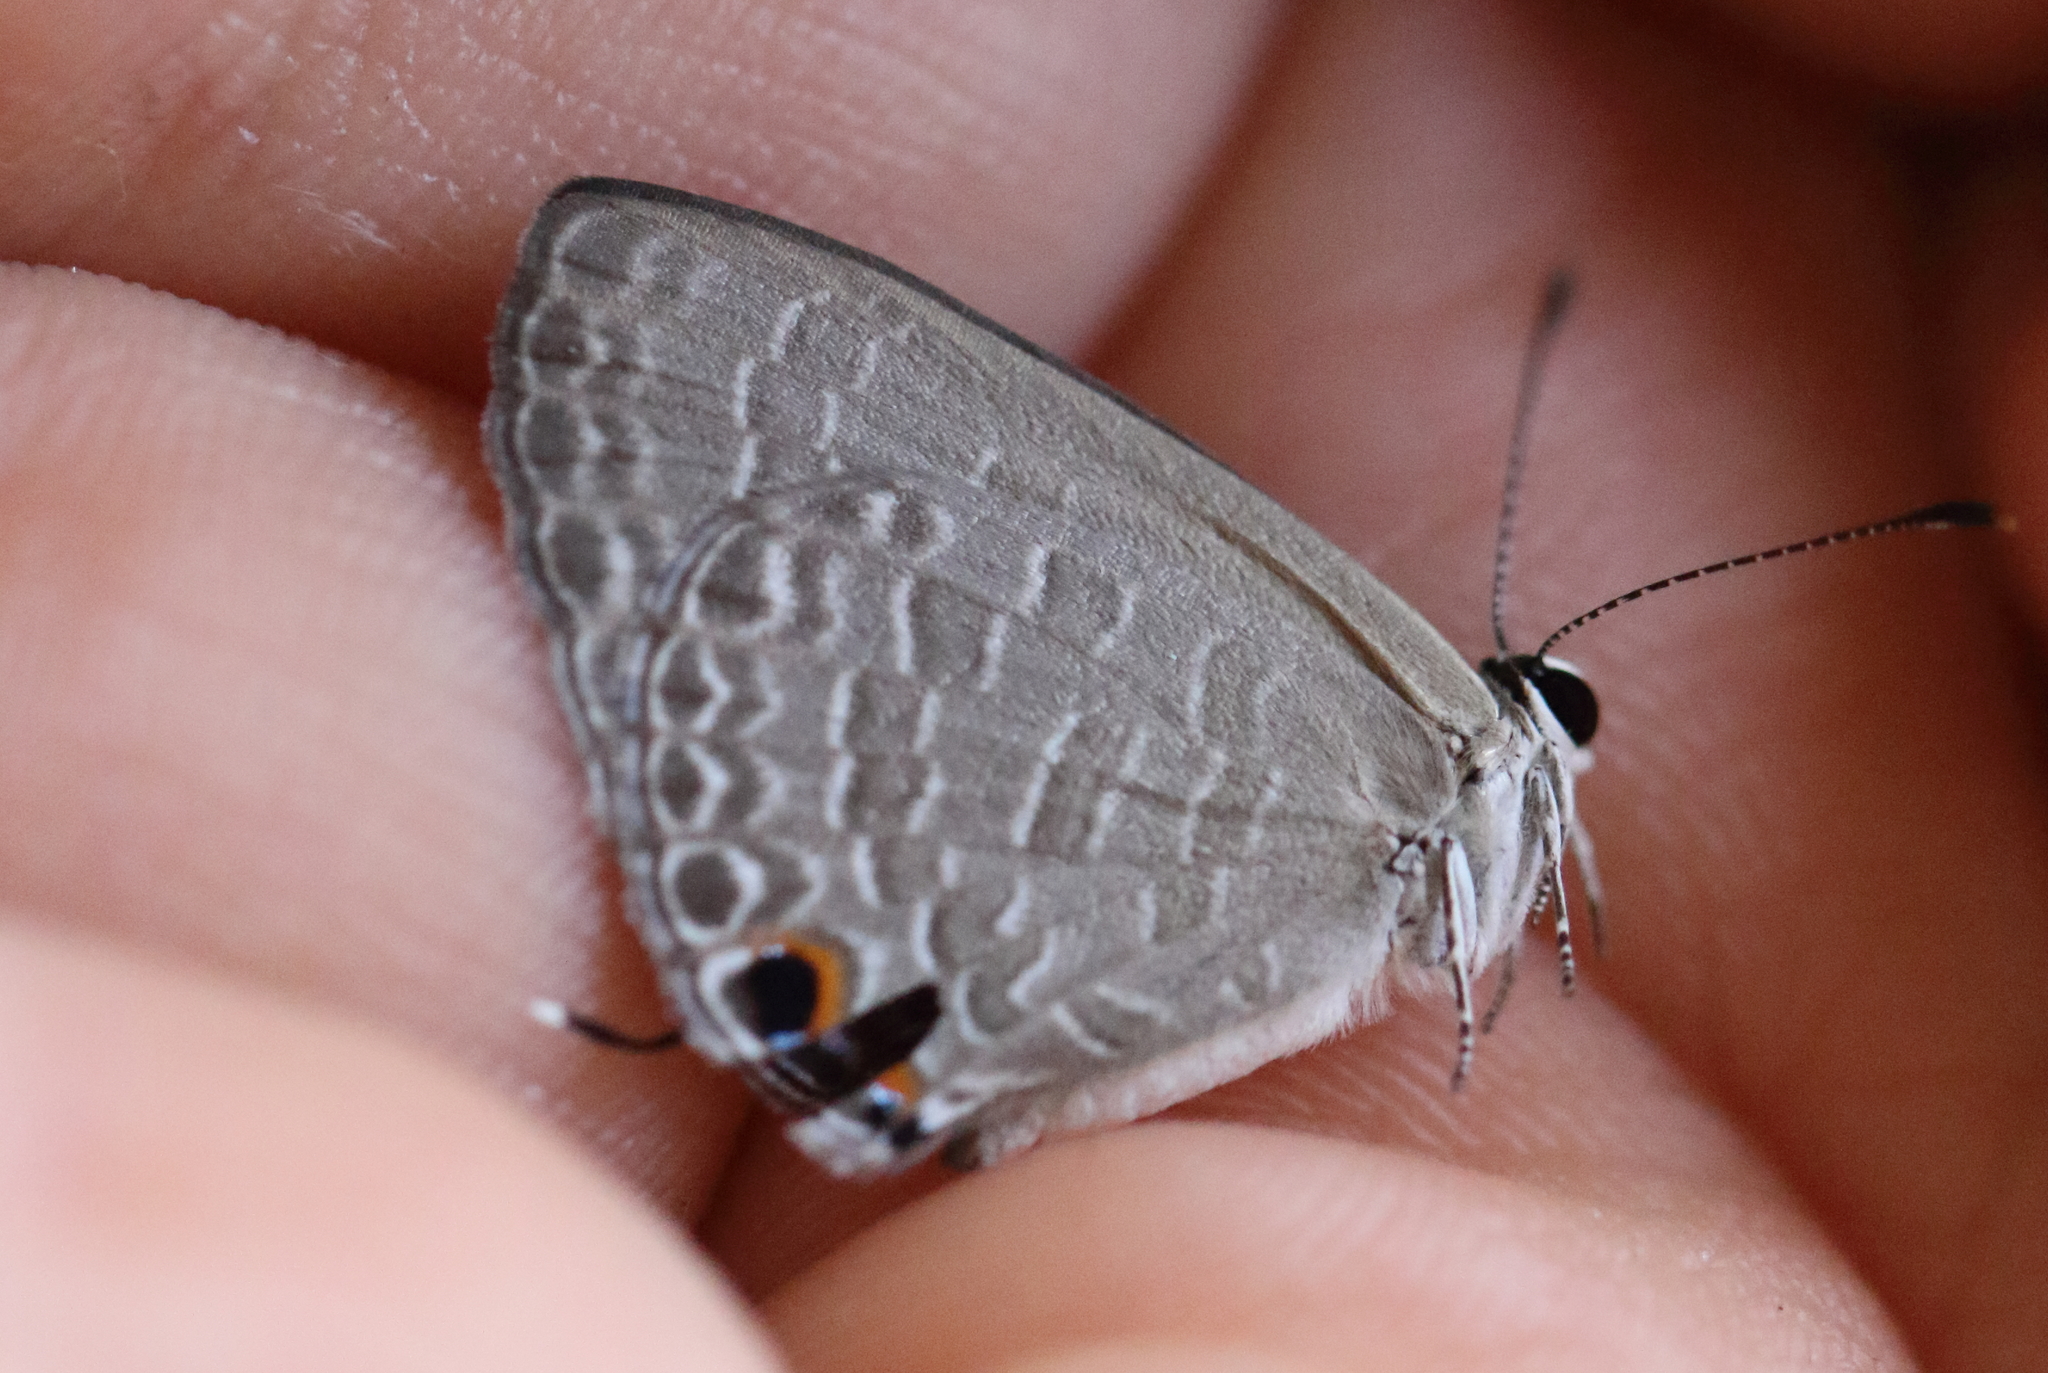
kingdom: Animalia
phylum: Arthropoda
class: Insecta
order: Lepidoptera
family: Lycaenidae
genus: Jamides
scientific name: Jamides phaseli
